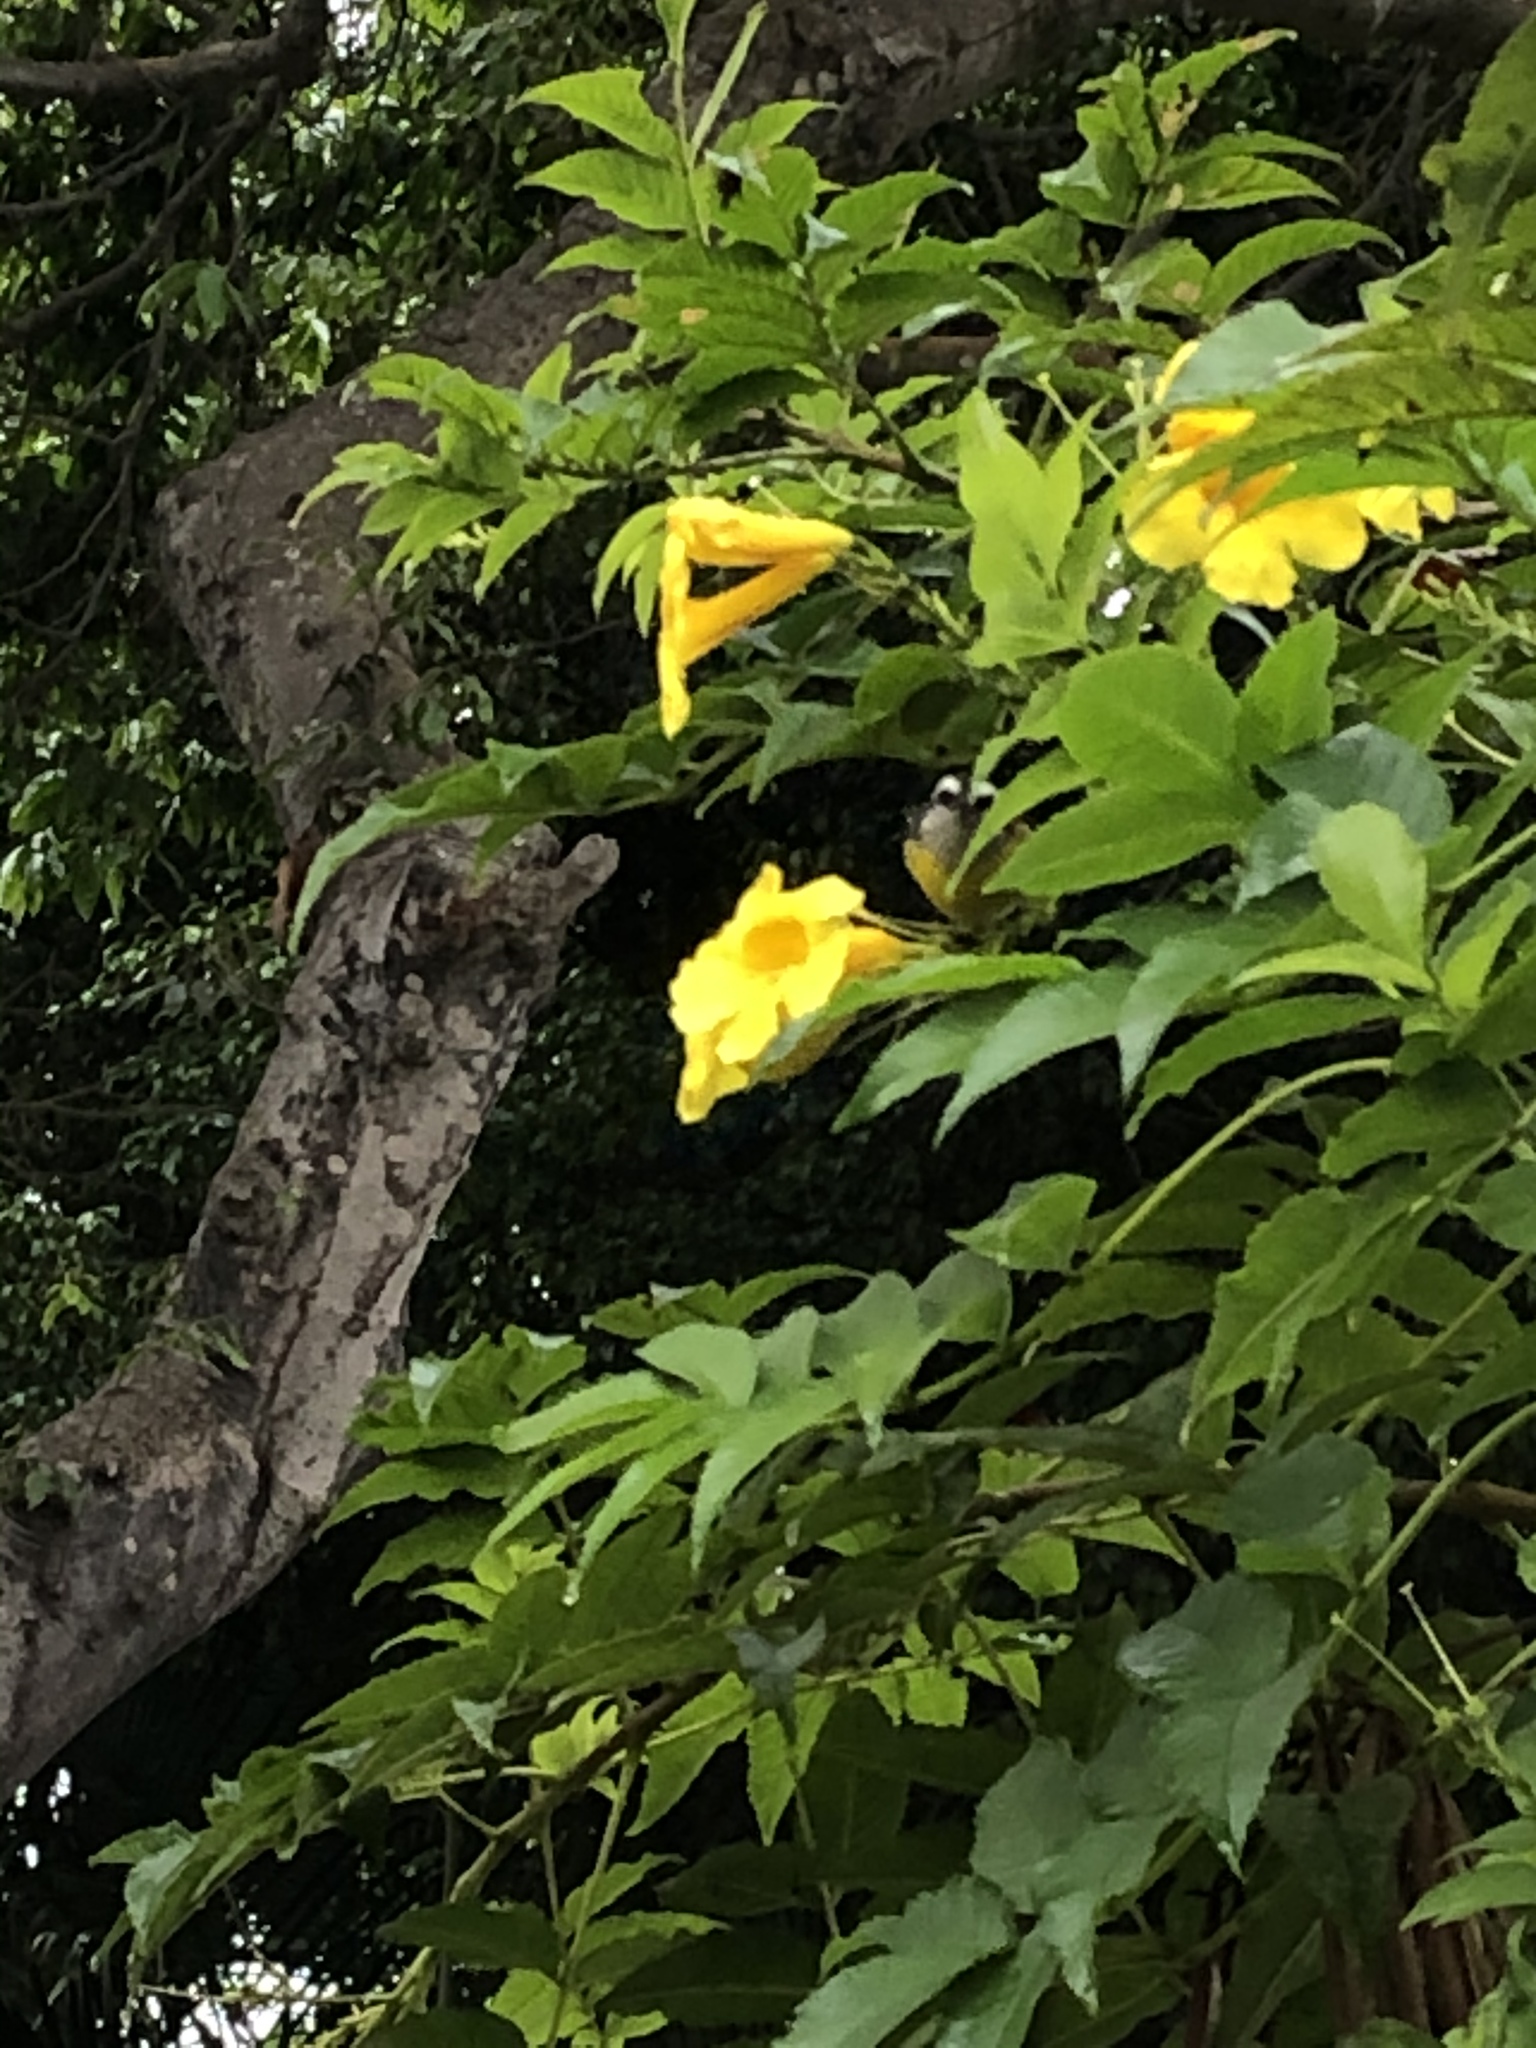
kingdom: Animalia
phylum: Chordata
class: Aves
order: Passeriformes
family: Thraupidae
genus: Coereba
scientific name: Coereba flaveola
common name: Bananaquit
